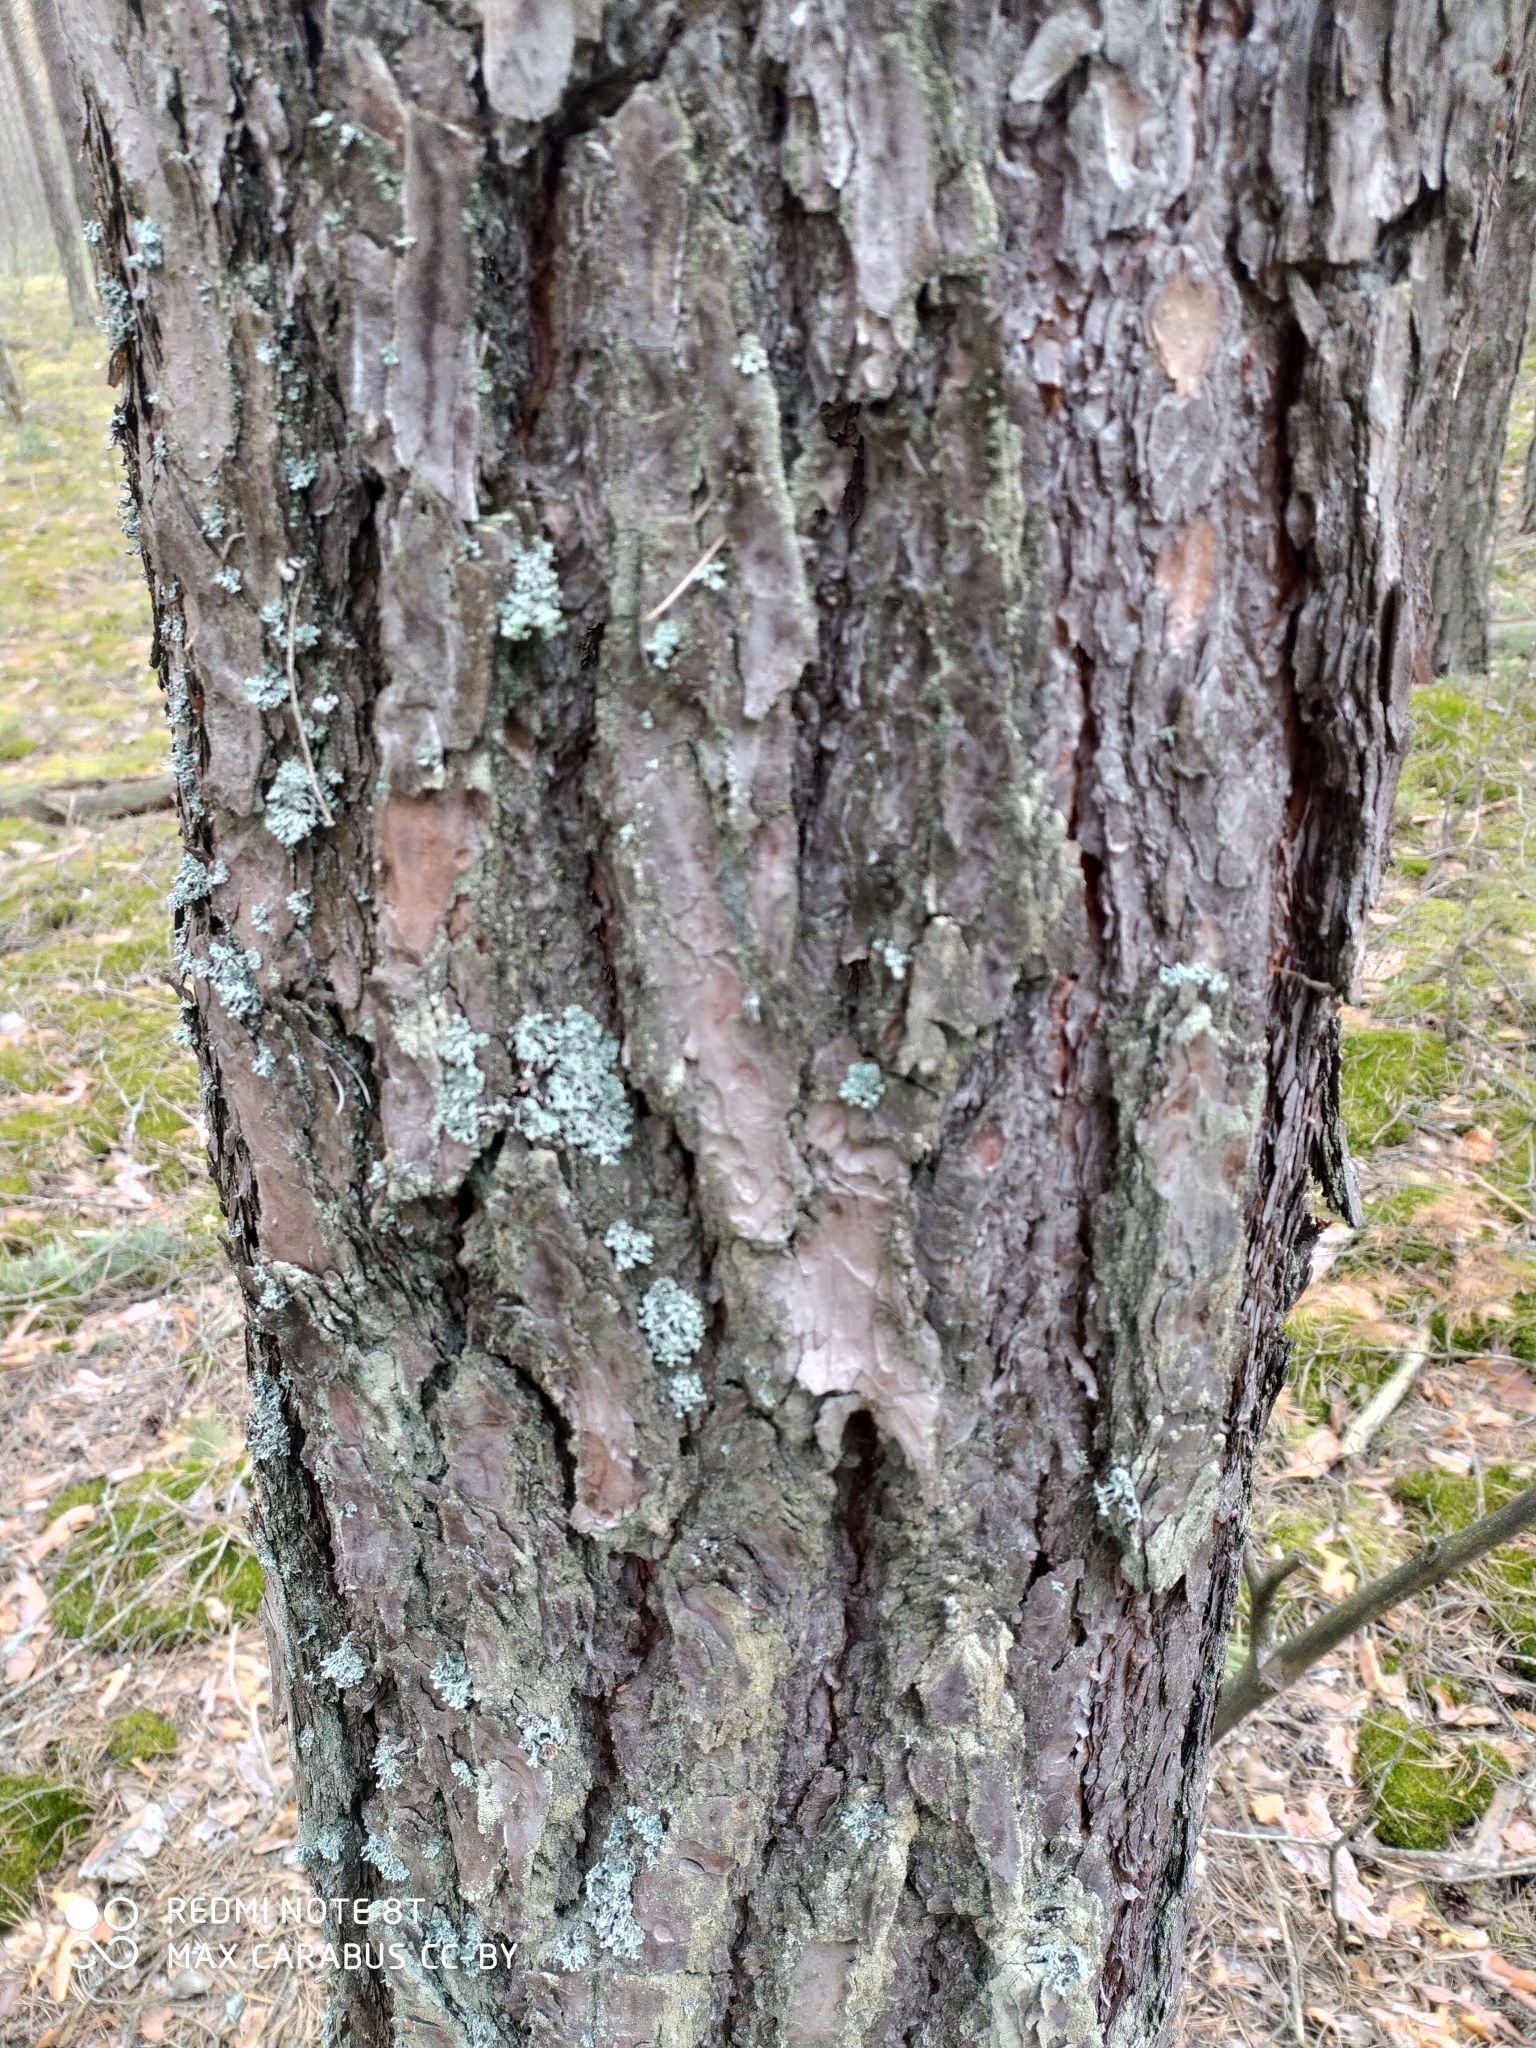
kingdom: Plantae
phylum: Tracheophyta
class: Pinopsida
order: Pinales
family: Pinaceae
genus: Pinus
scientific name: Pinus sylvestris
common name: Scots pine
